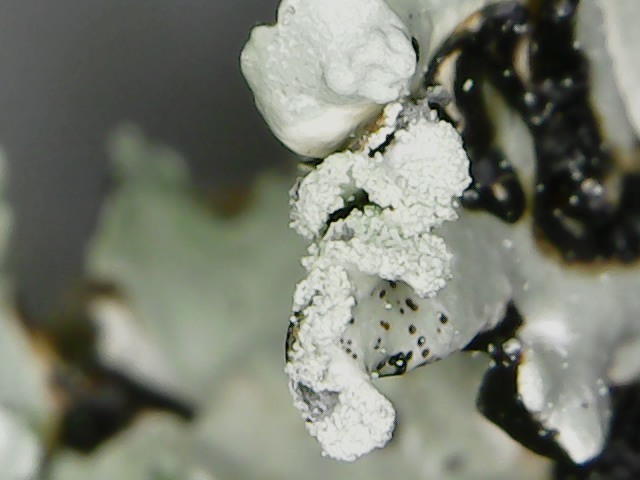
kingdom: Fungi
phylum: Ascomycota
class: Lecanoromycetes
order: Lecanorales
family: Parmeliaceae
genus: Hypogymnia
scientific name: Hypogymnia physodes
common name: Dark crottle
